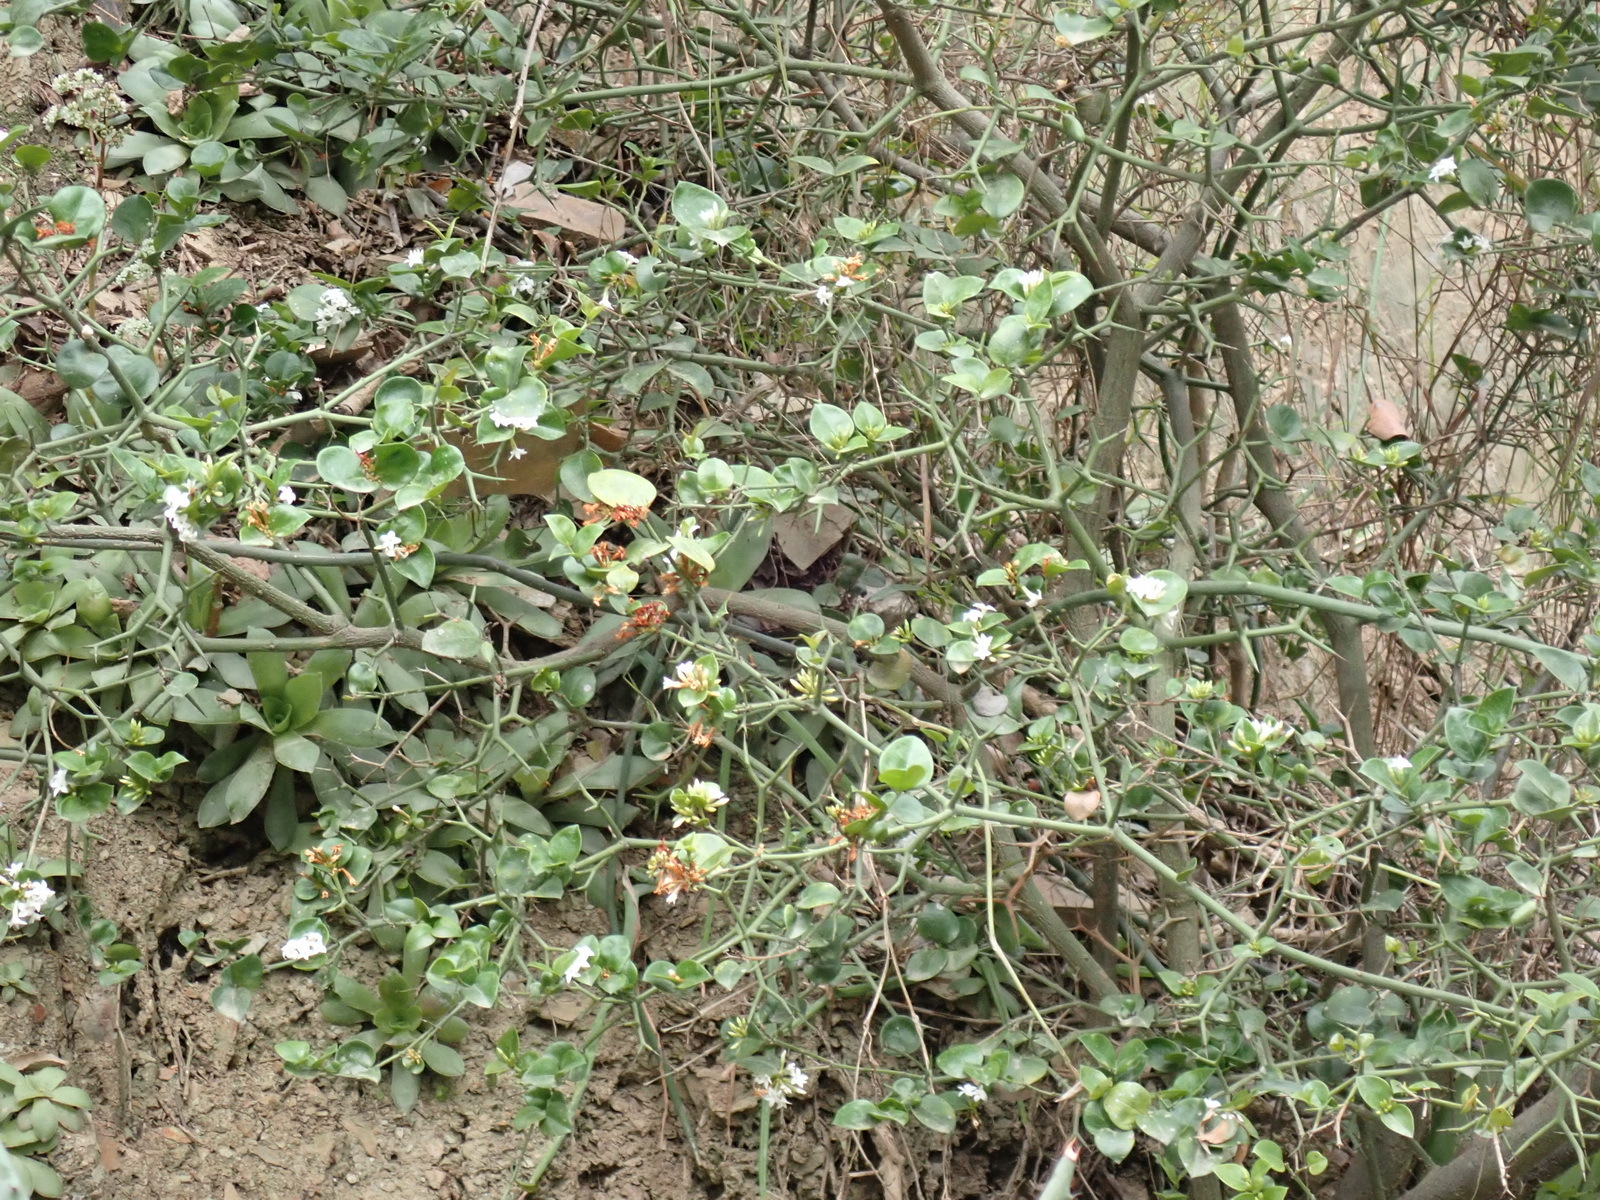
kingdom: Plantae
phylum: Tracheophyta
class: Magnoliopsida
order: Gentianales
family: Apocynaceae
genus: Carissa
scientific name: Carissa bispinosa
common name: Forest num-num
